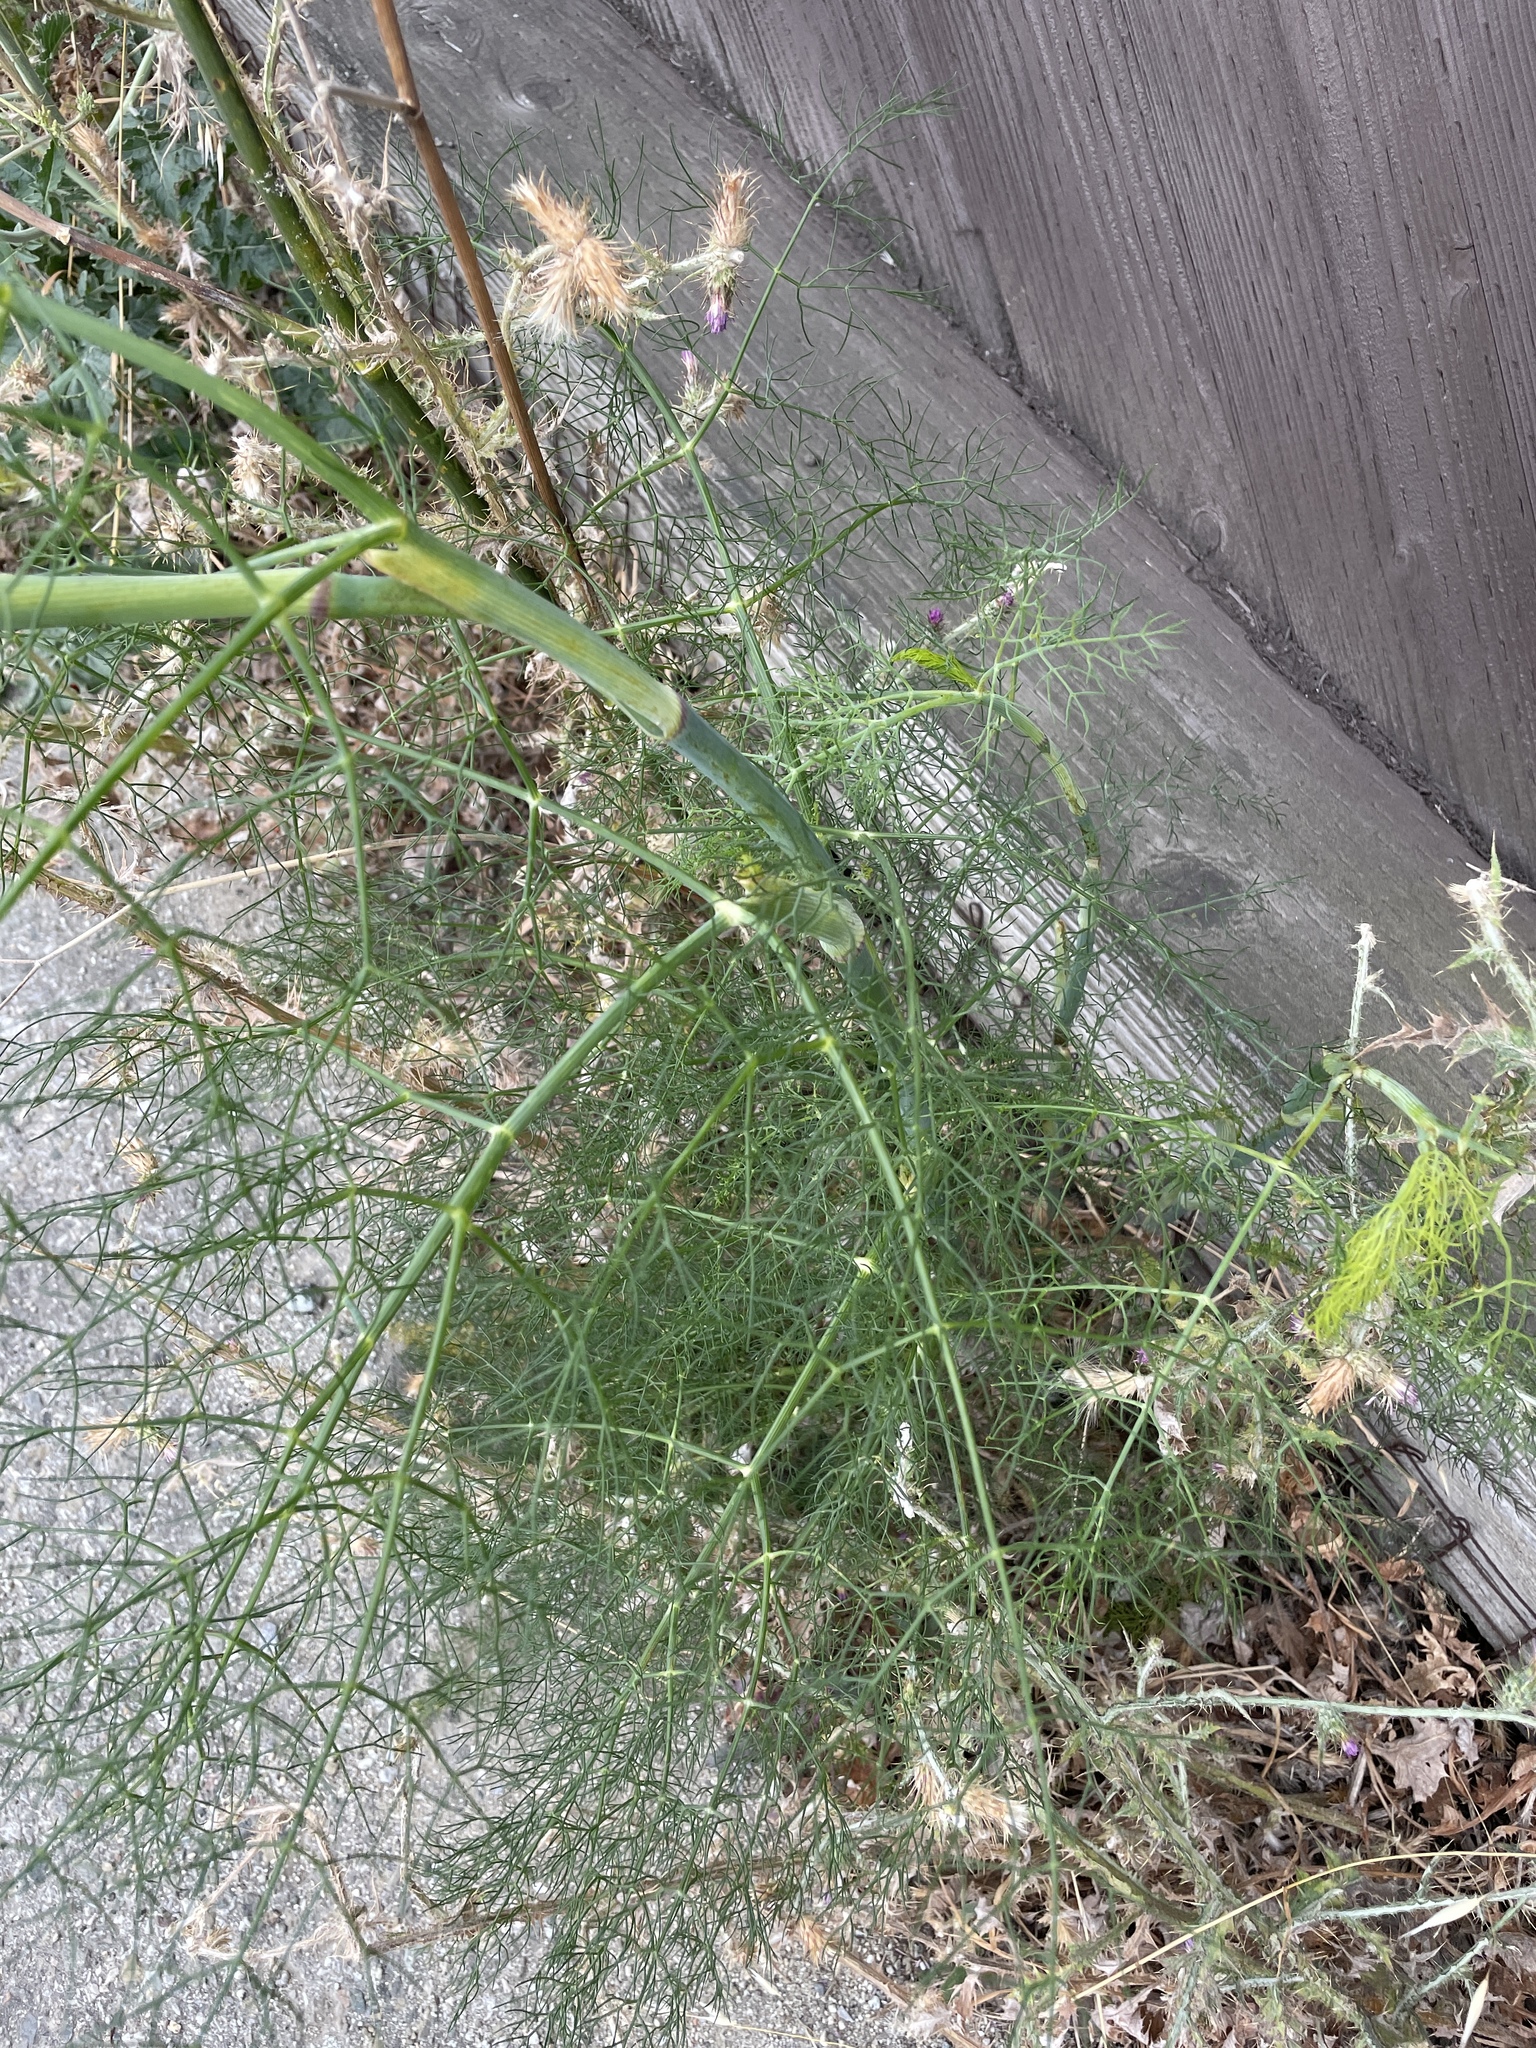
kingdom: Plantae
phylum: Tracheophyta
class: Magnoliopsida
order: Apiales
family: Apiaceae
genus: Foeniculum
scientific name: Foeniculum vulgare
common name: Fennel
